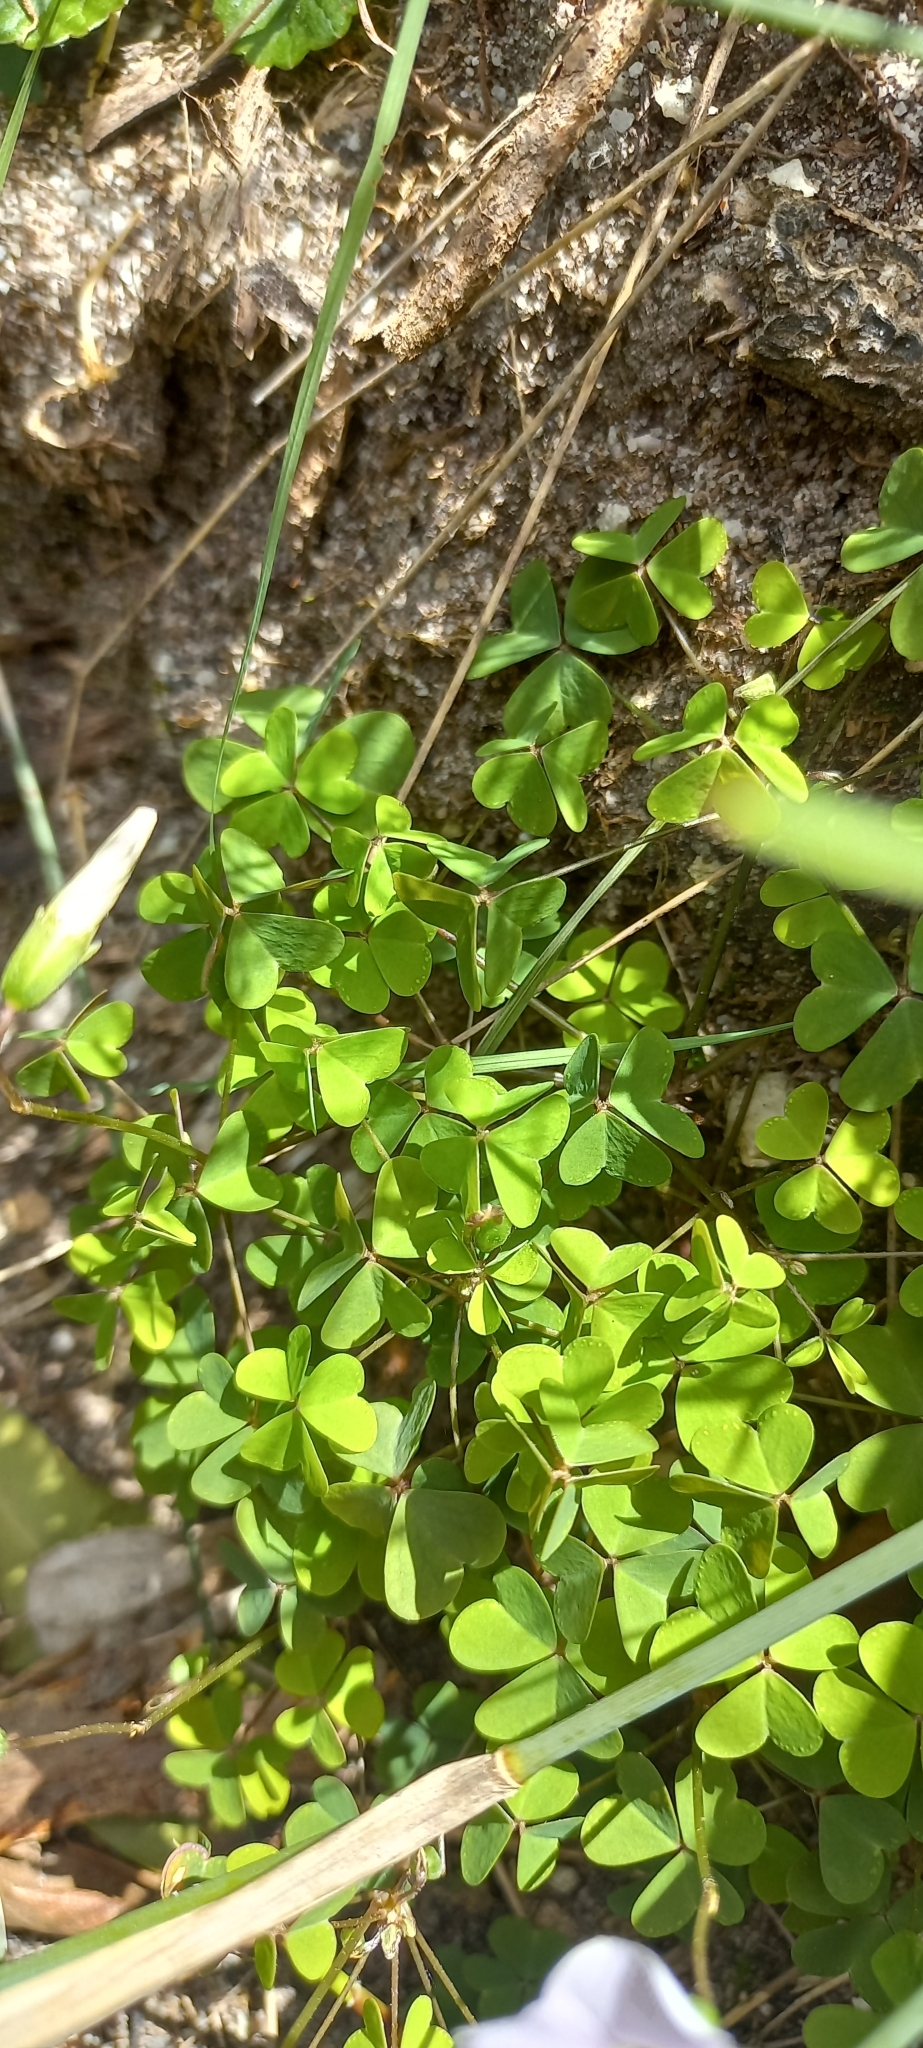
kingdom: Plantae
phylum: Tracheophyta
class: Magnoliopsida
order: Oxalidales
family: Oxalidaceae
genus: Oxalis
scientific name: Oxalis incarnata
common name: Pale pink-sorrel
